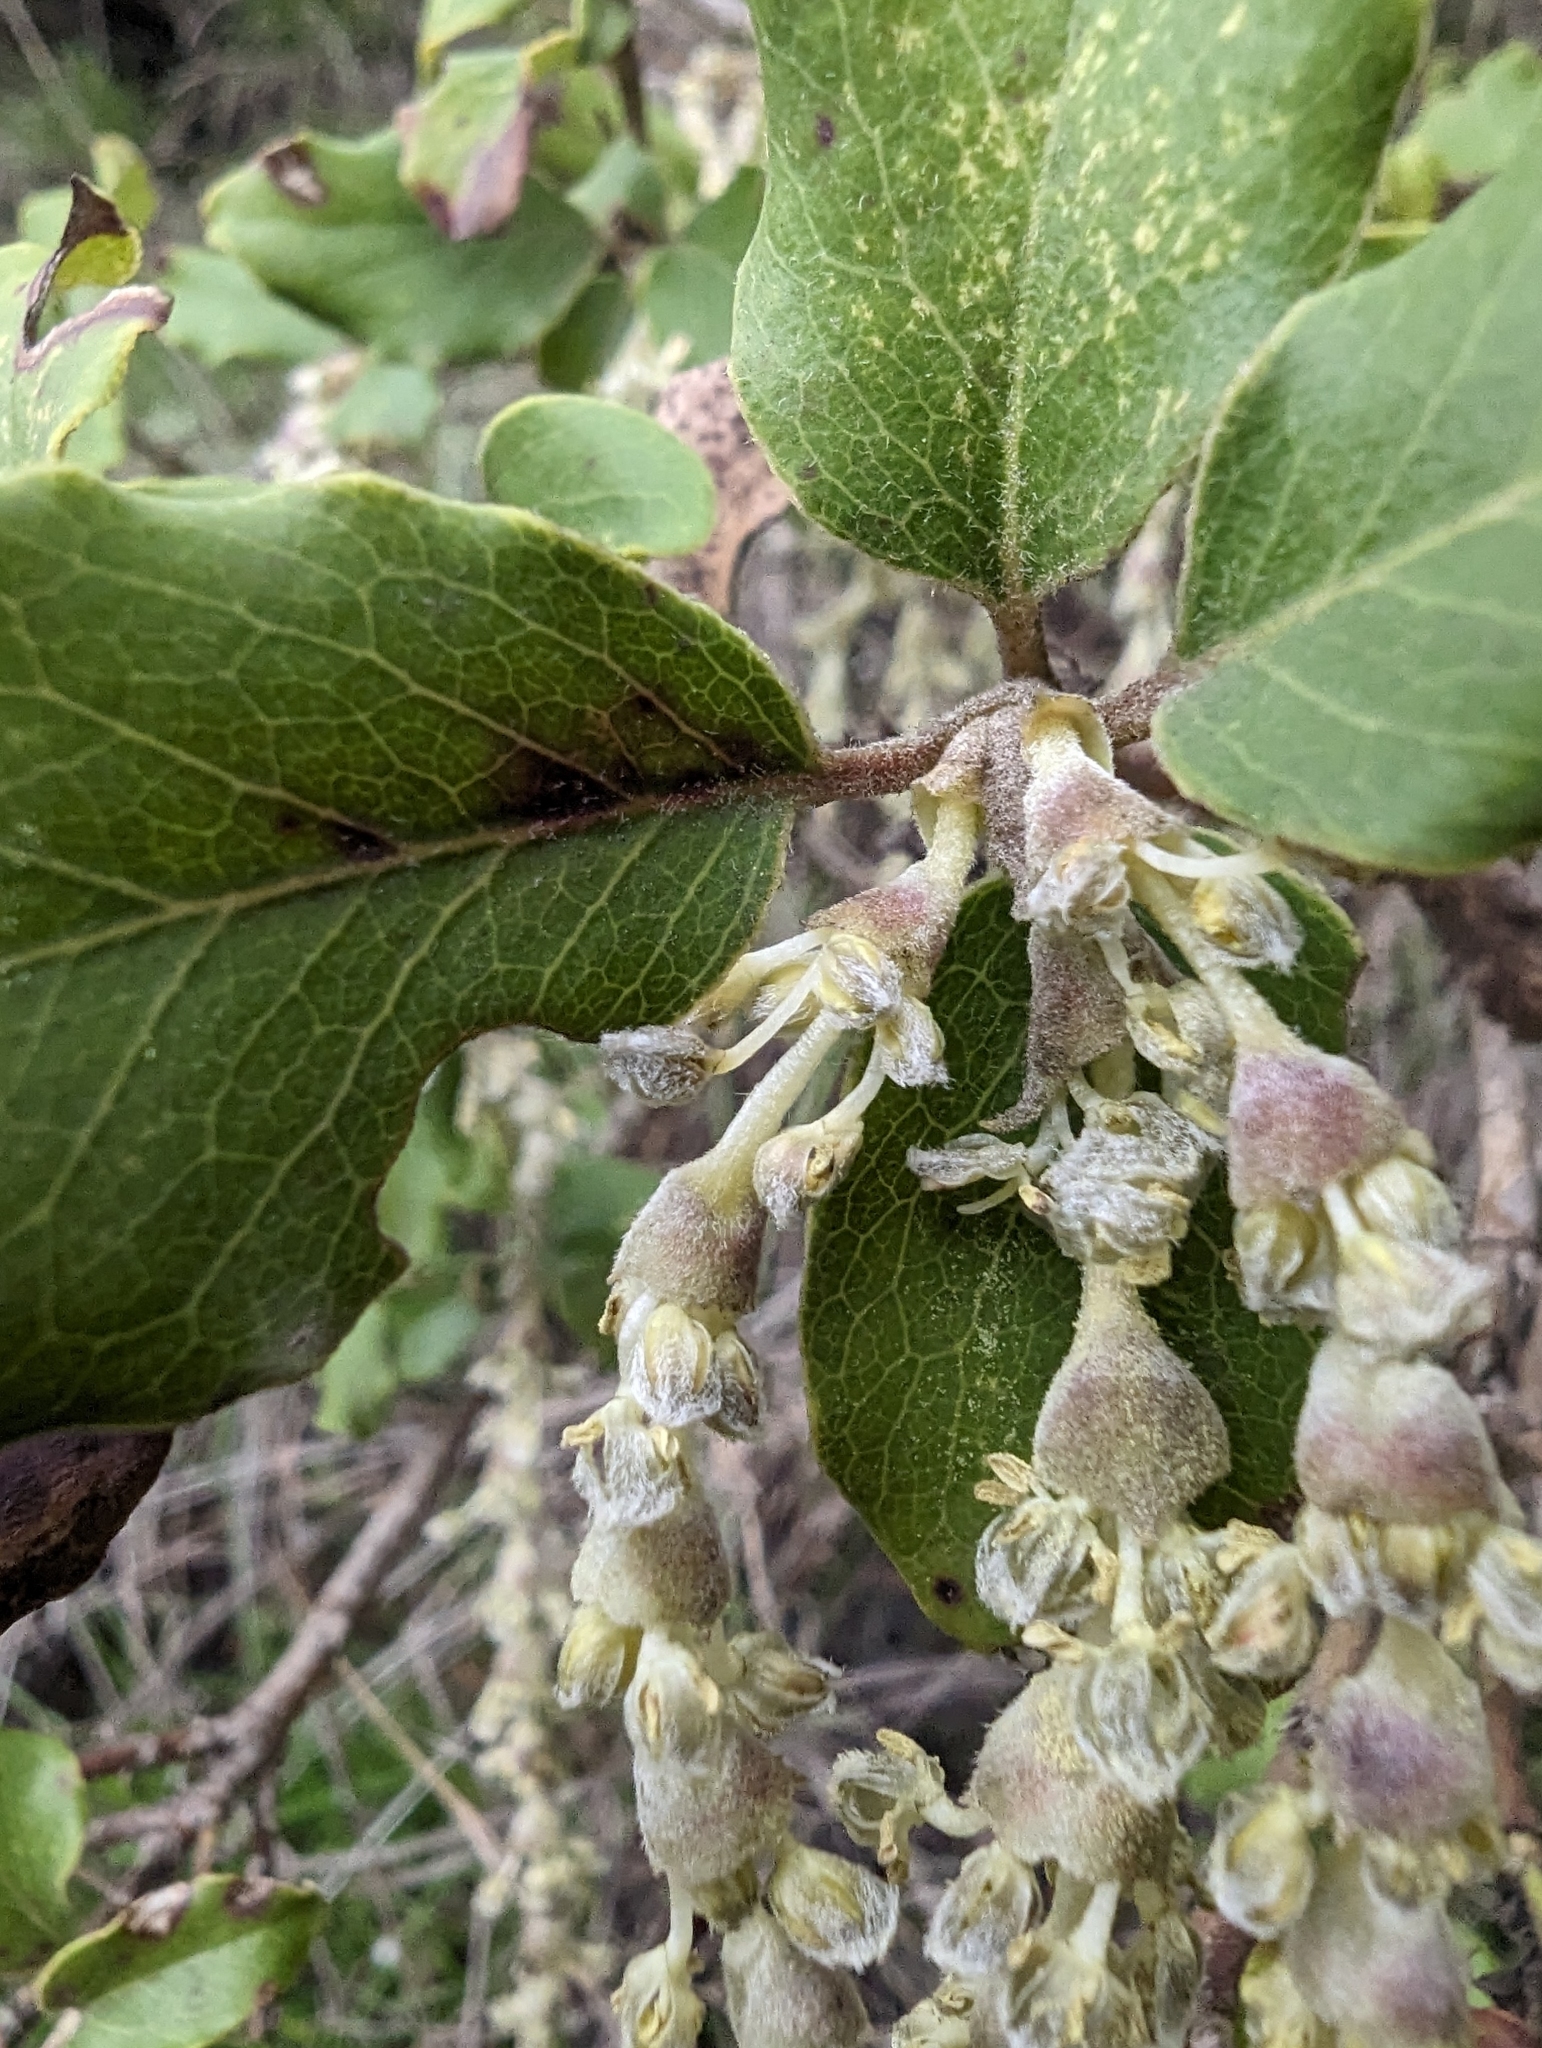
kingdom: Plantae
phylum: Tracheophyta
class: Magnoliopsida
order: Garryales
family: Garryaceae
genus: Garrya
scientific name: Garrya elliptica
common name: Silk-tassel
